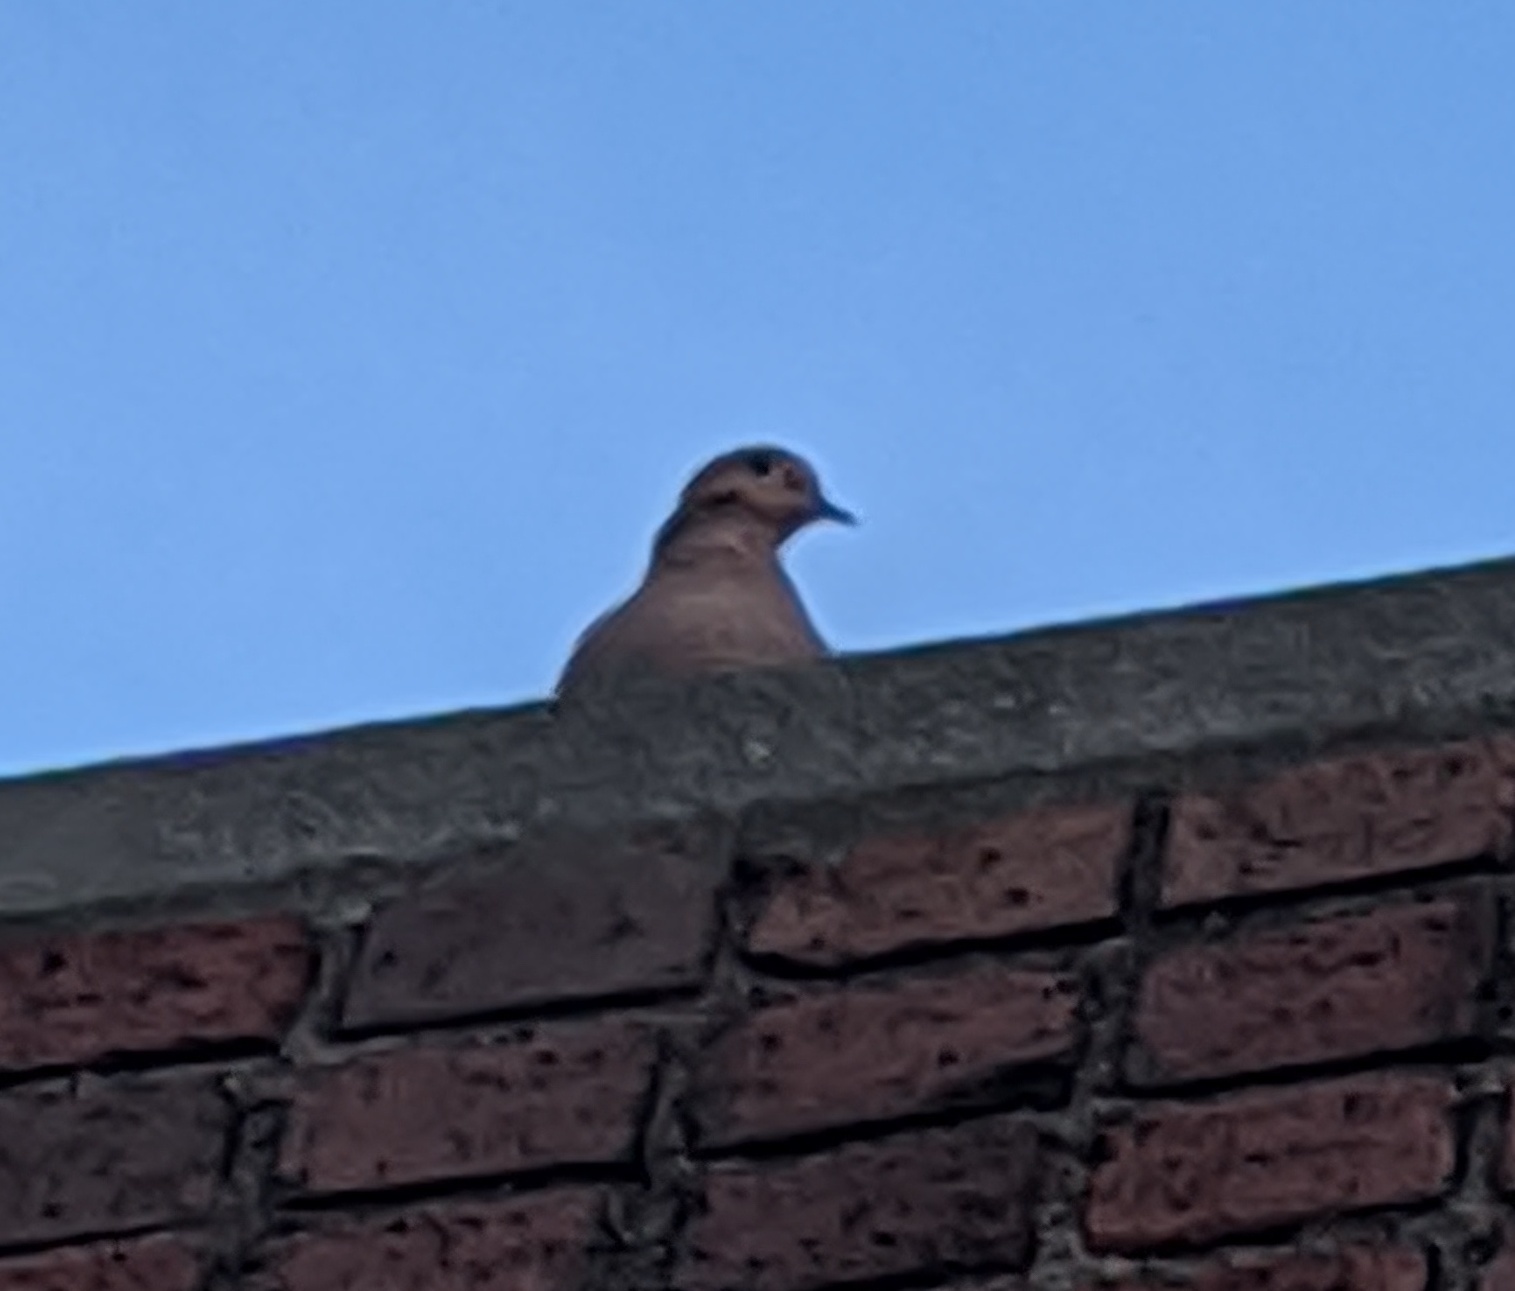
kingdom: Animalia
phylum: Chordata
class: Aves
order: Columbiformes
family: Columbidae
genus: Zenaida
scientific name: Zenaida macroura
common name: Mourning dove
